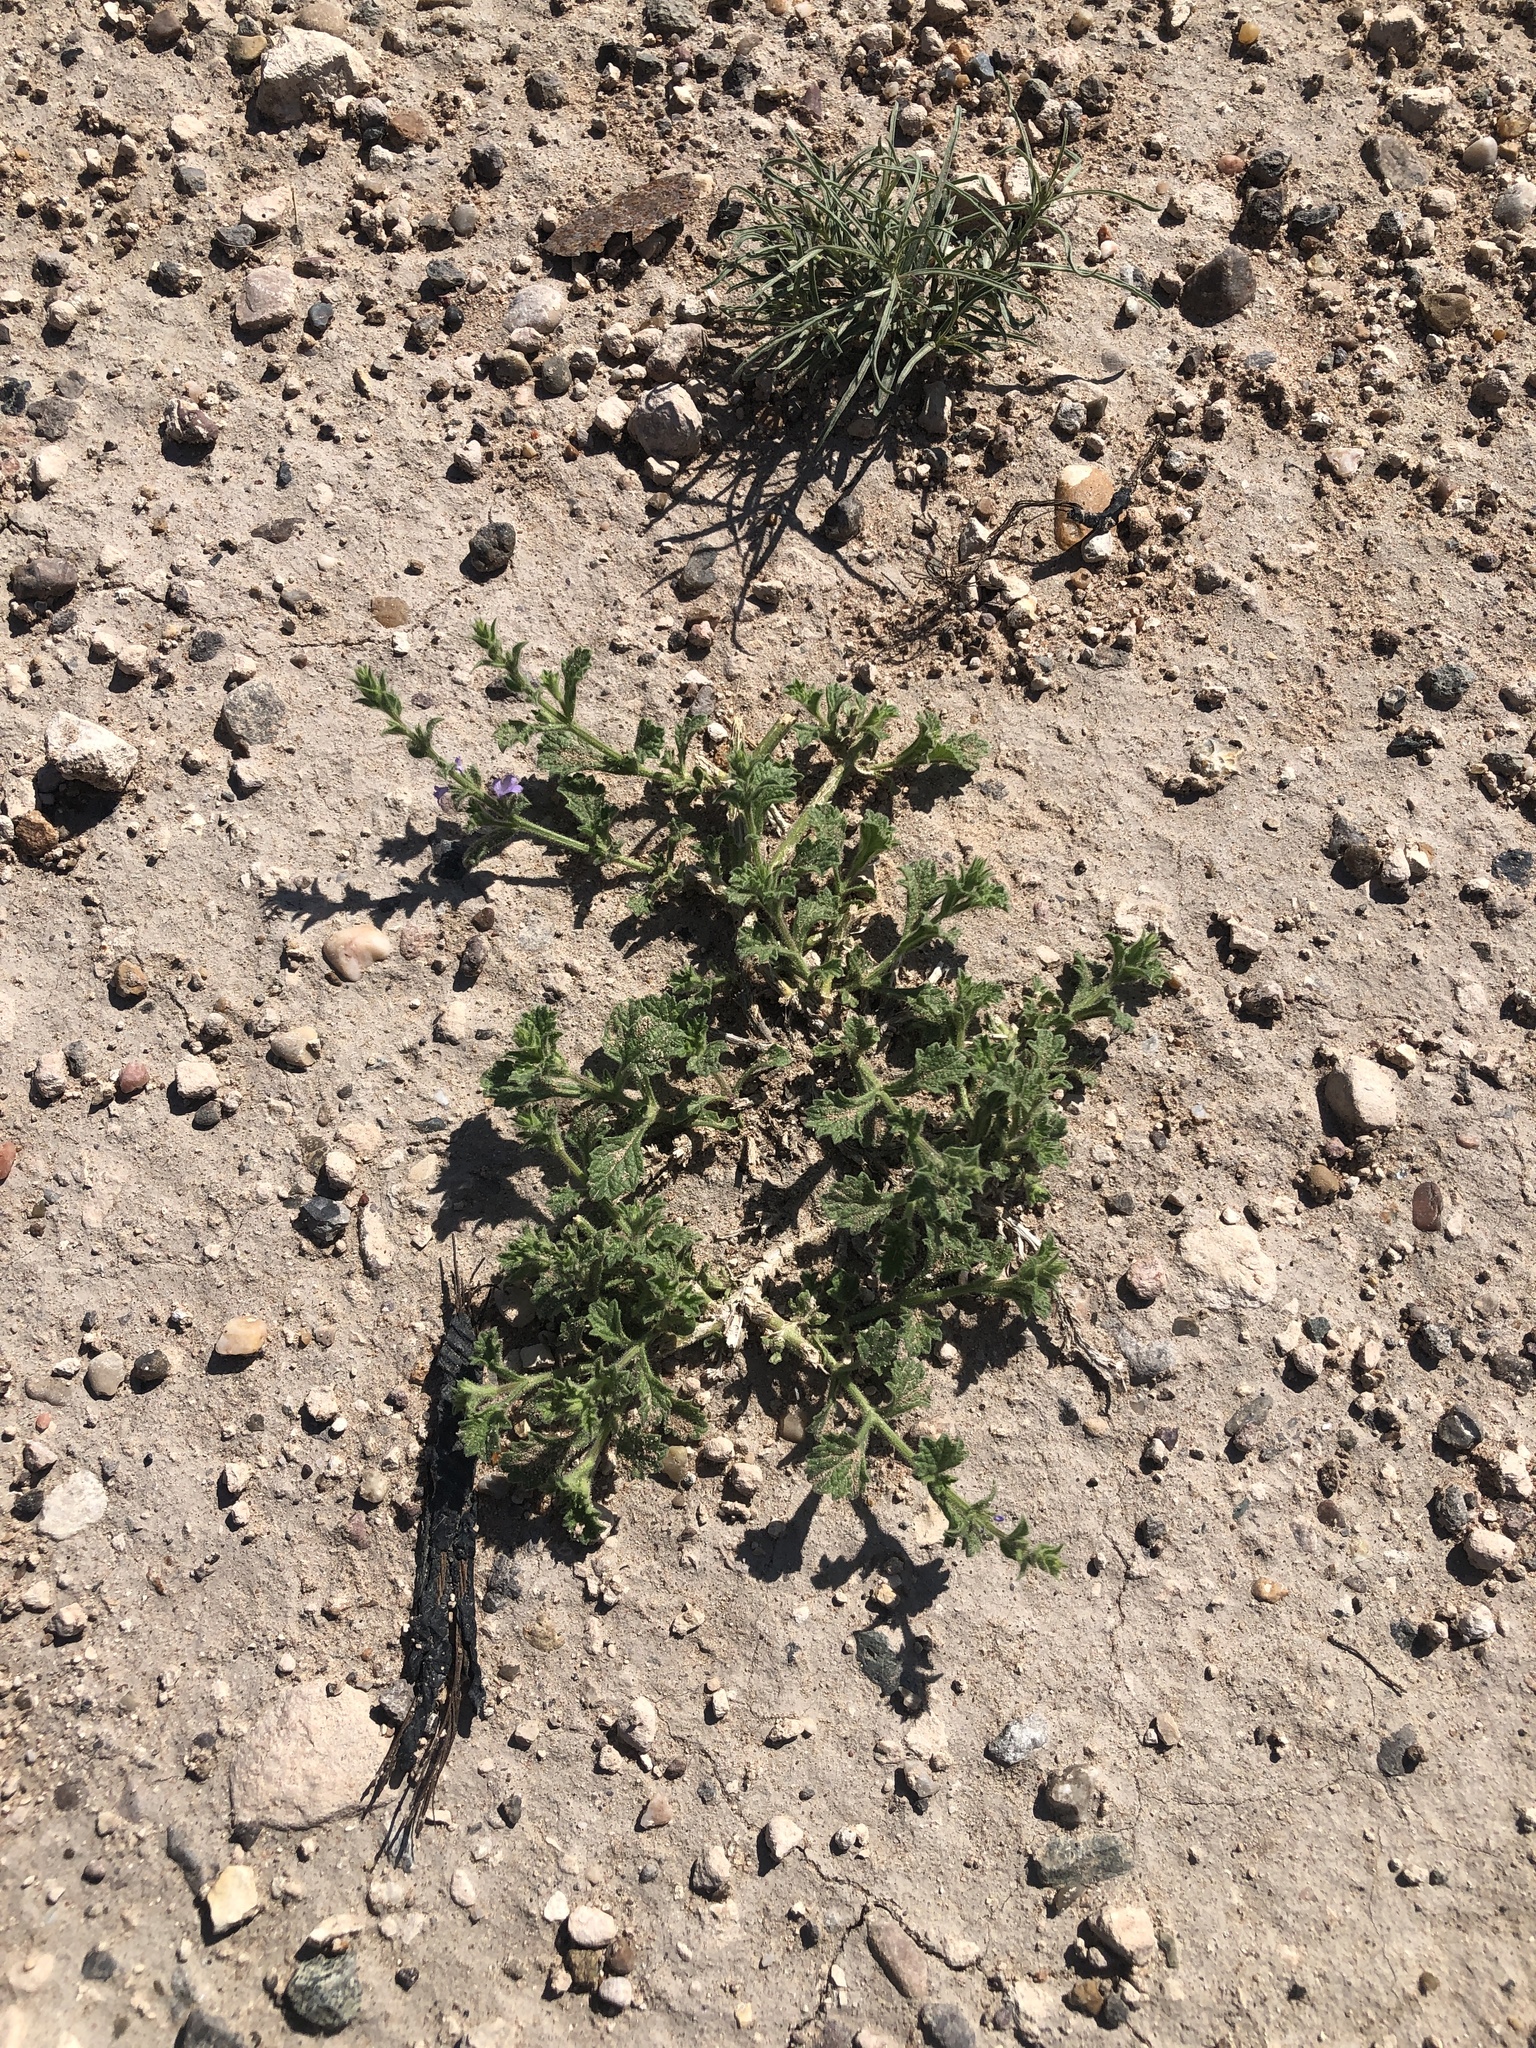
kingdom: Plantae
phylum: Tracheophyta
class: Magnoliopsida
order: Lamiales
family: Verbenaceae
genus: Verbena
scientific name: Verbena canescens
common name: Gray vervain
